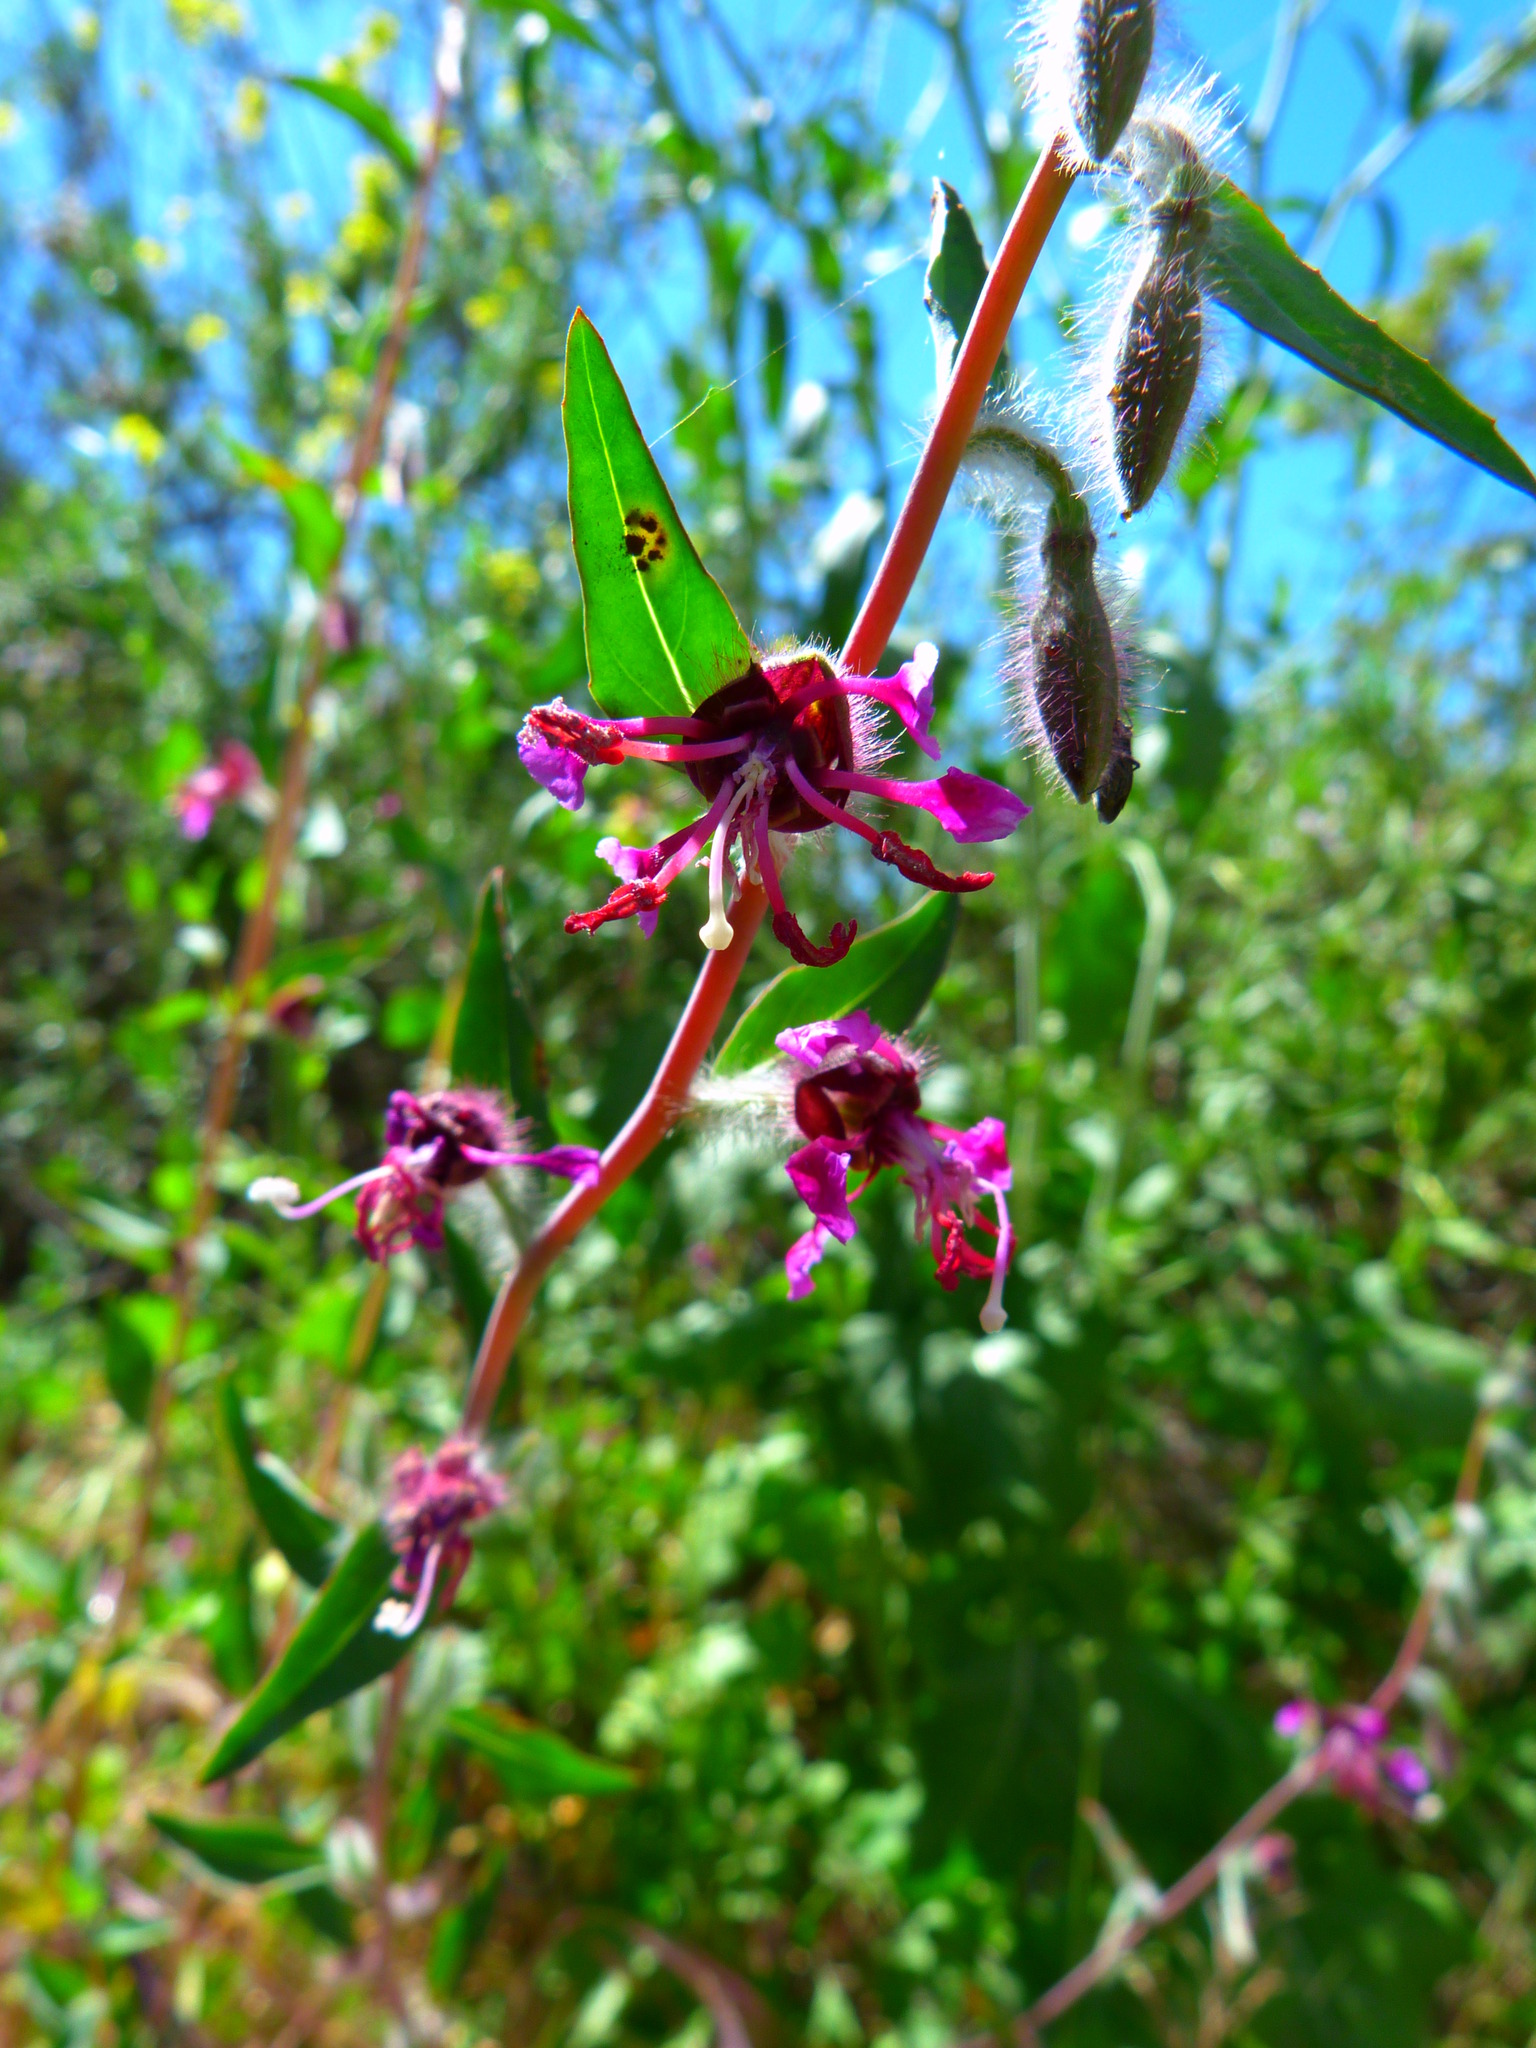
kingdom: Plantae
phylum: Tracheophyta
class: Magnoliopsida
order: Myrtales
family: Onagraceae
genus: Clarkia
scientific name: Clarkia unguiculata
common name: Clarkia
